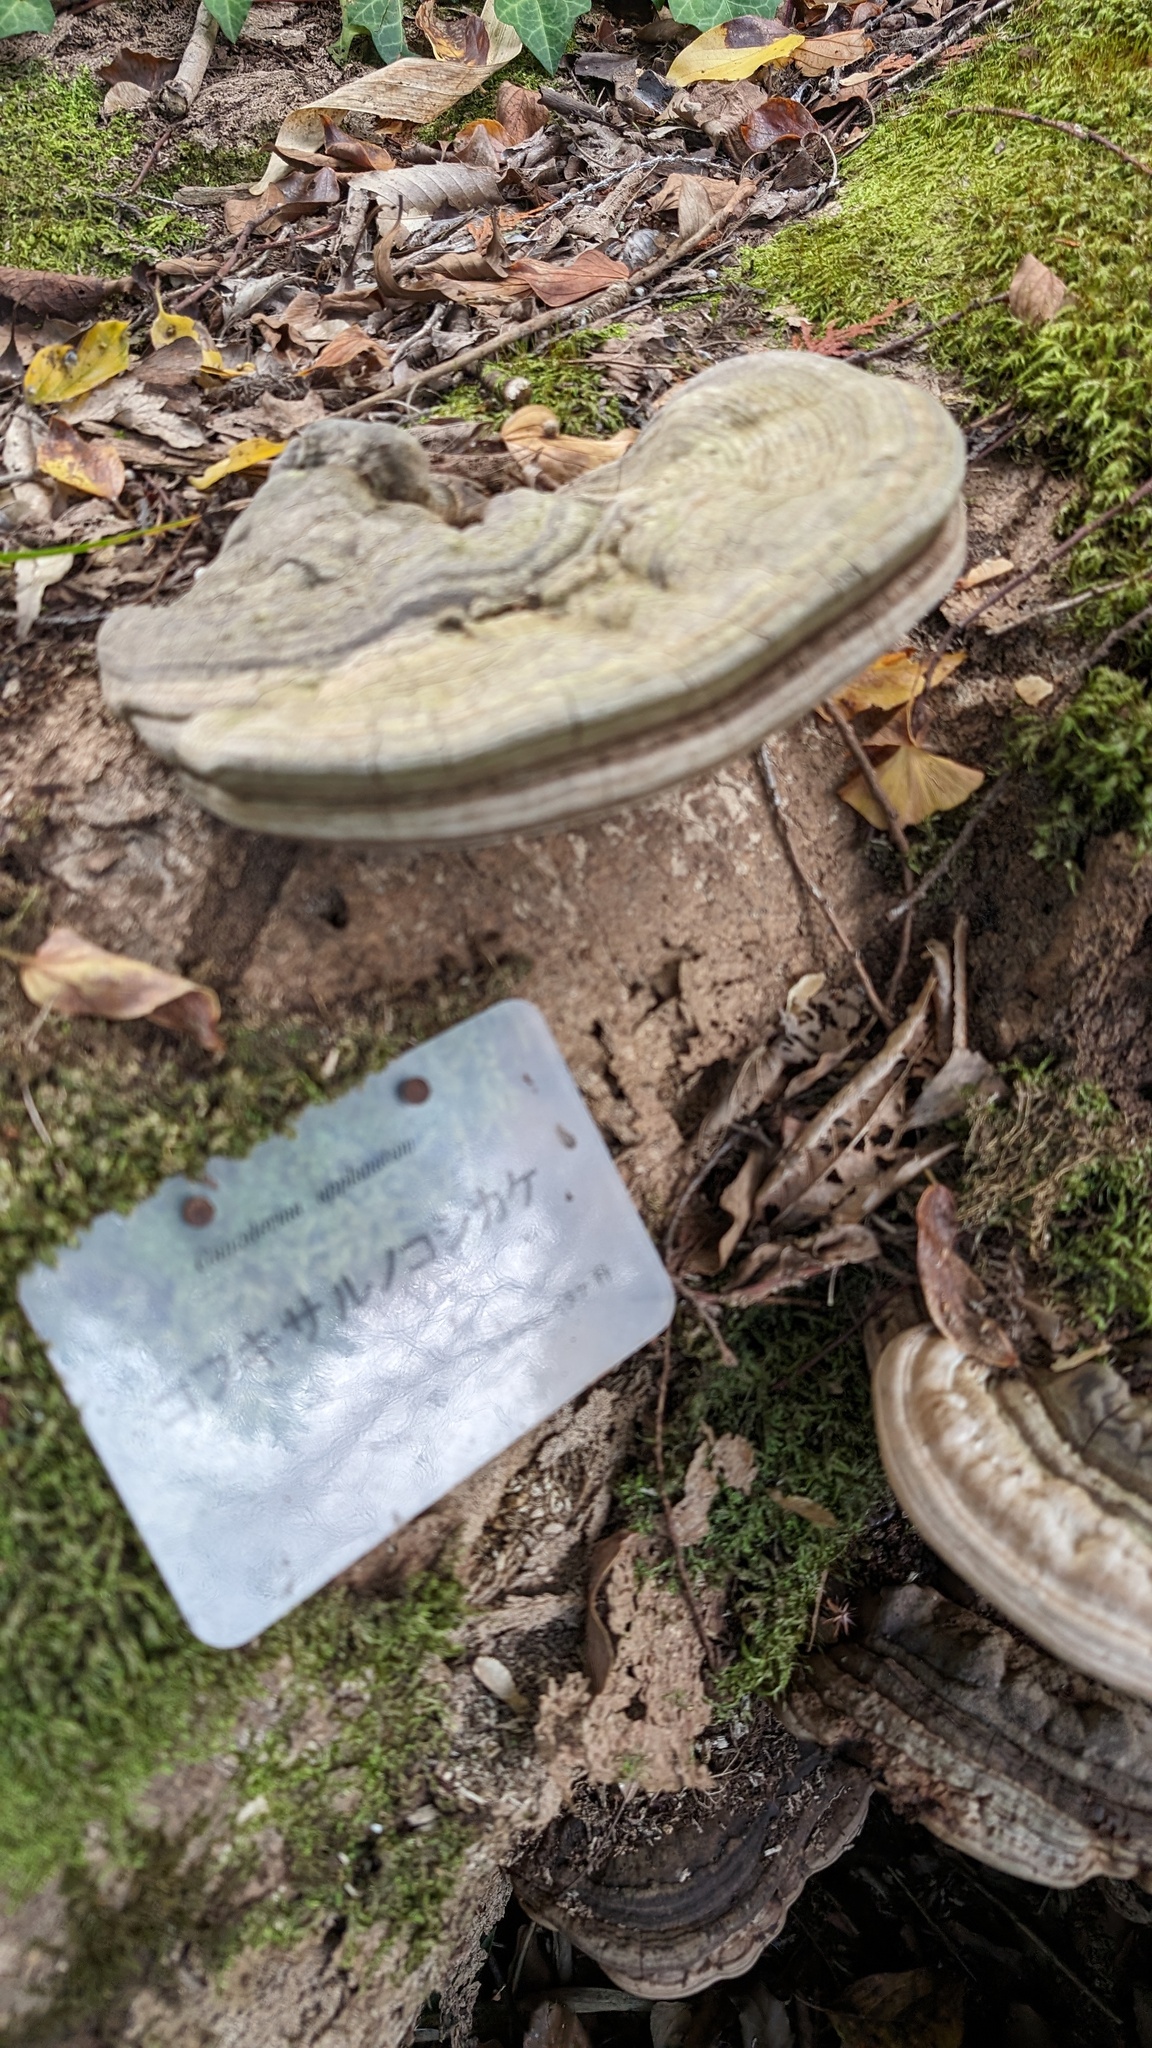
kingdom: Fungi
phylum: Basidiomycota
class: Agaricomycetes
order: Polyporales
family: Polyporaceae
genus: Ganoderma
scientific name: Ganoderma applanatum
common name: Artist's bracket
